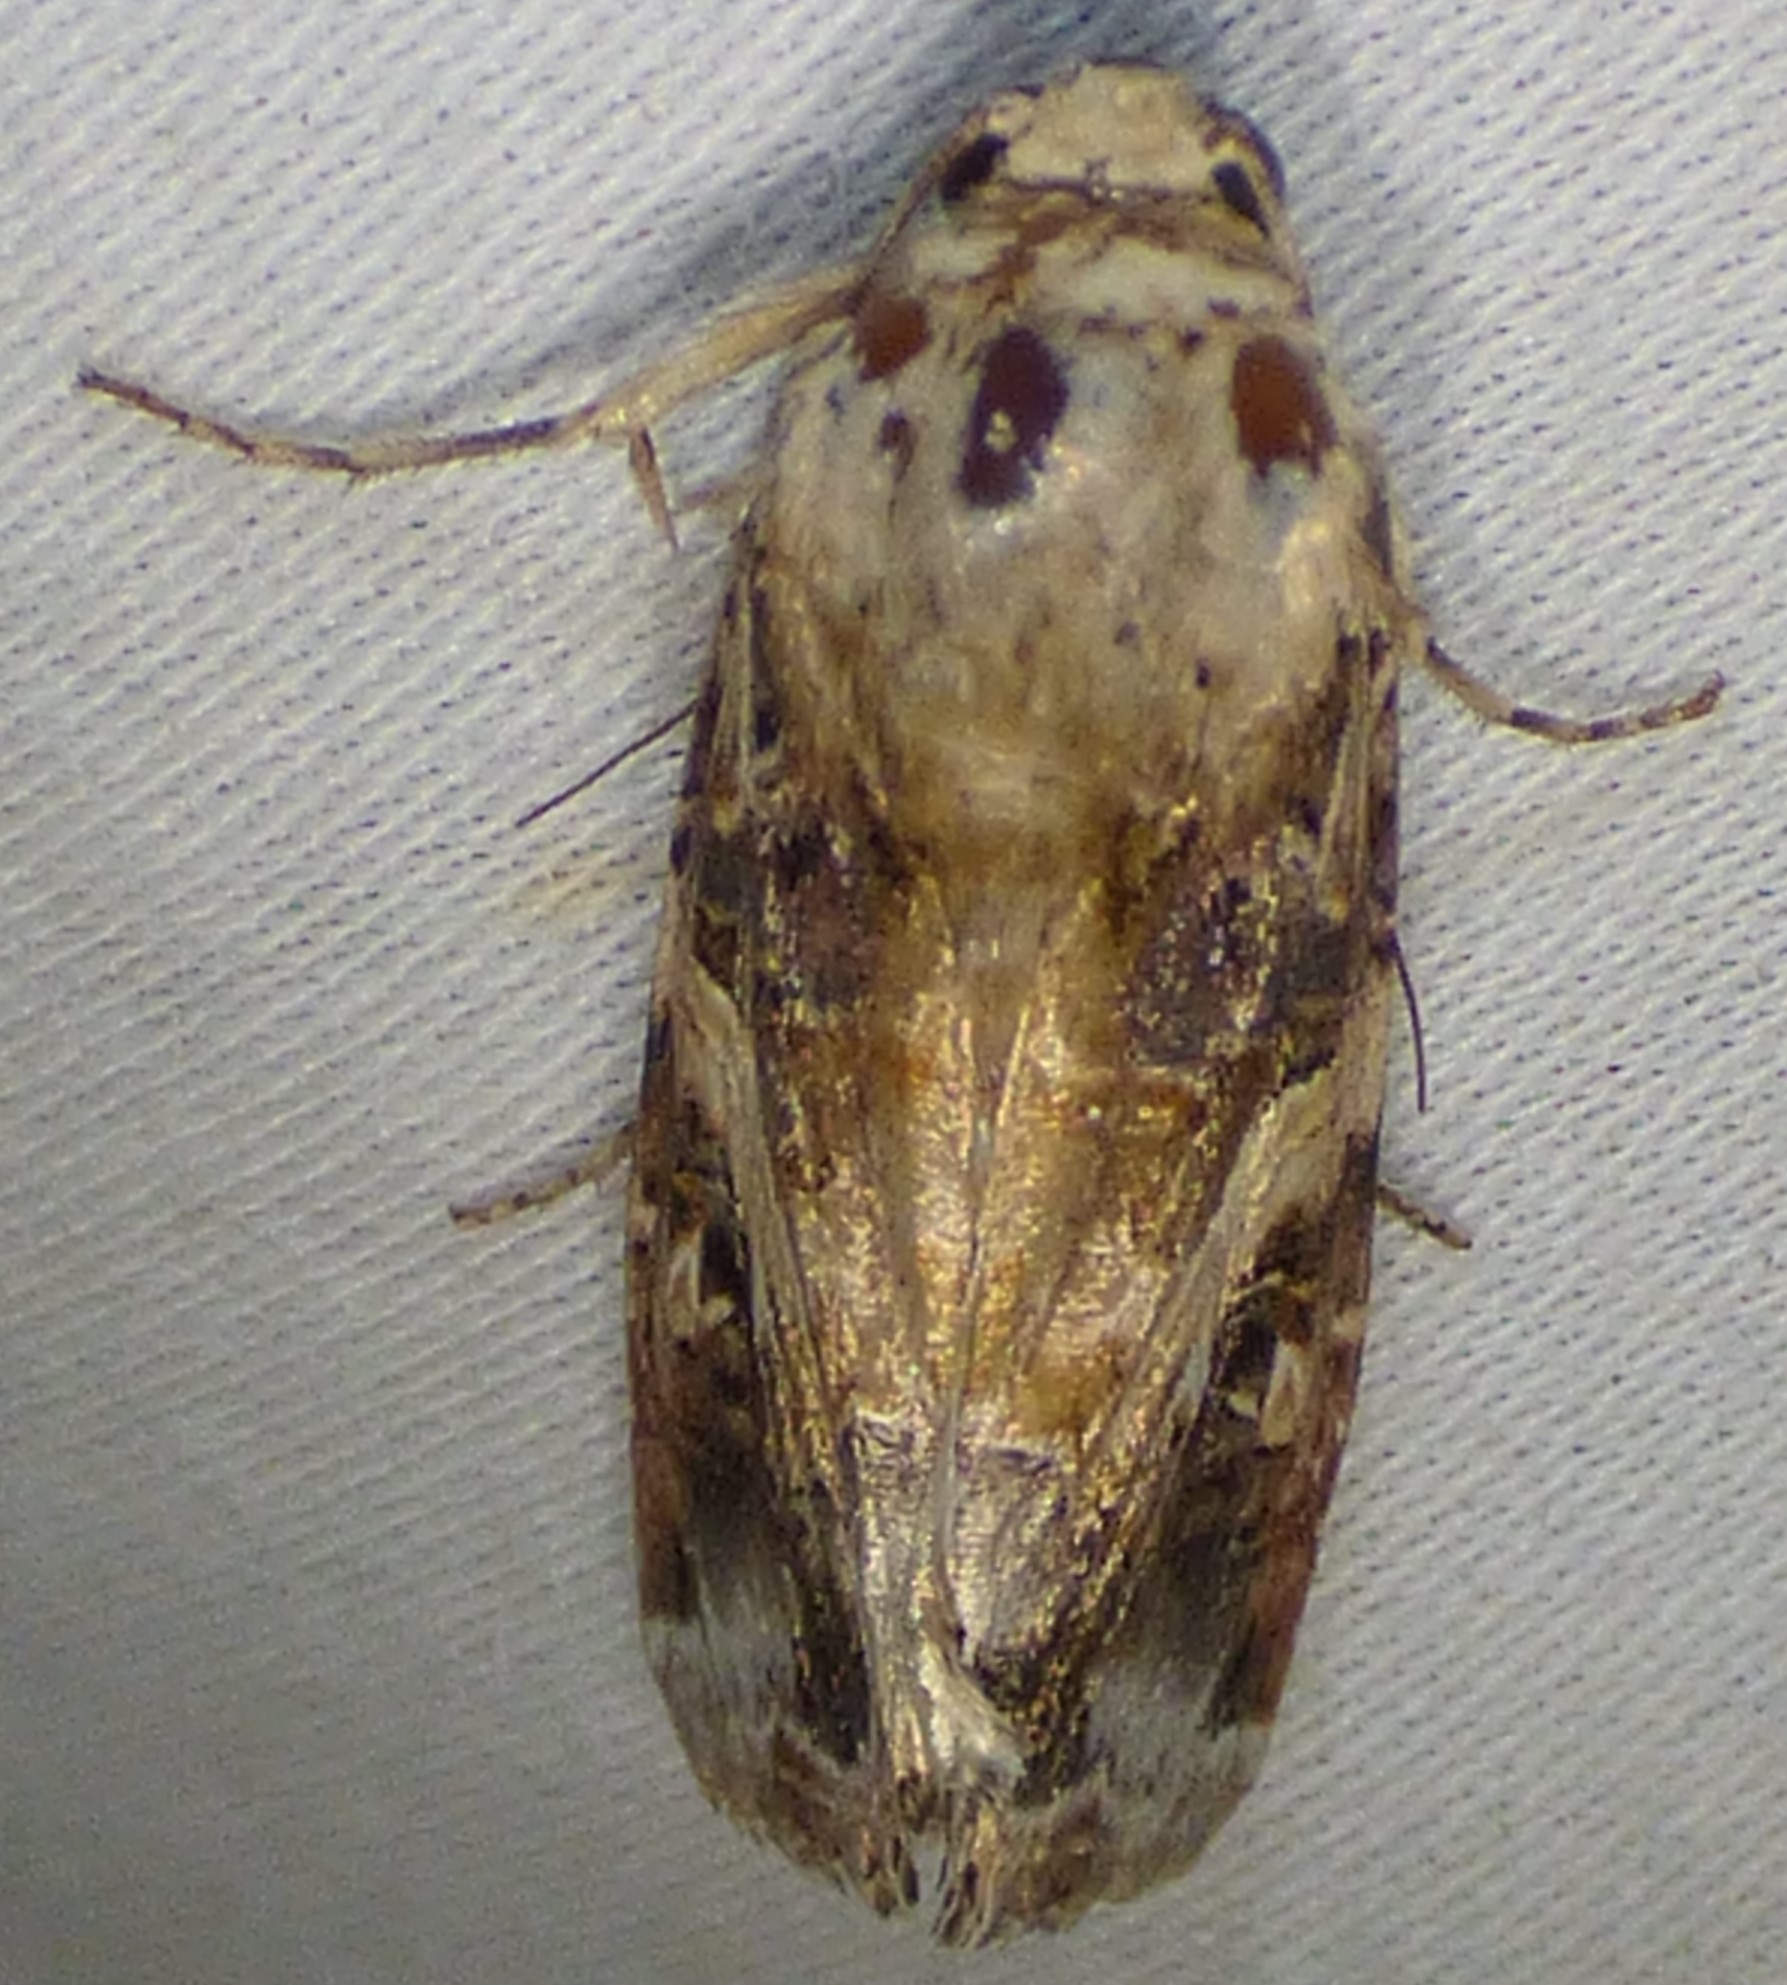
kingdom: Animalia
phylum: Arthropoda
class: Insecta
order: Lepidoptera
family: Noctuidae
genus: Spodoptera
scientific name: Spodoptera ornithogalli
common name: Yellow-striped armyworm
